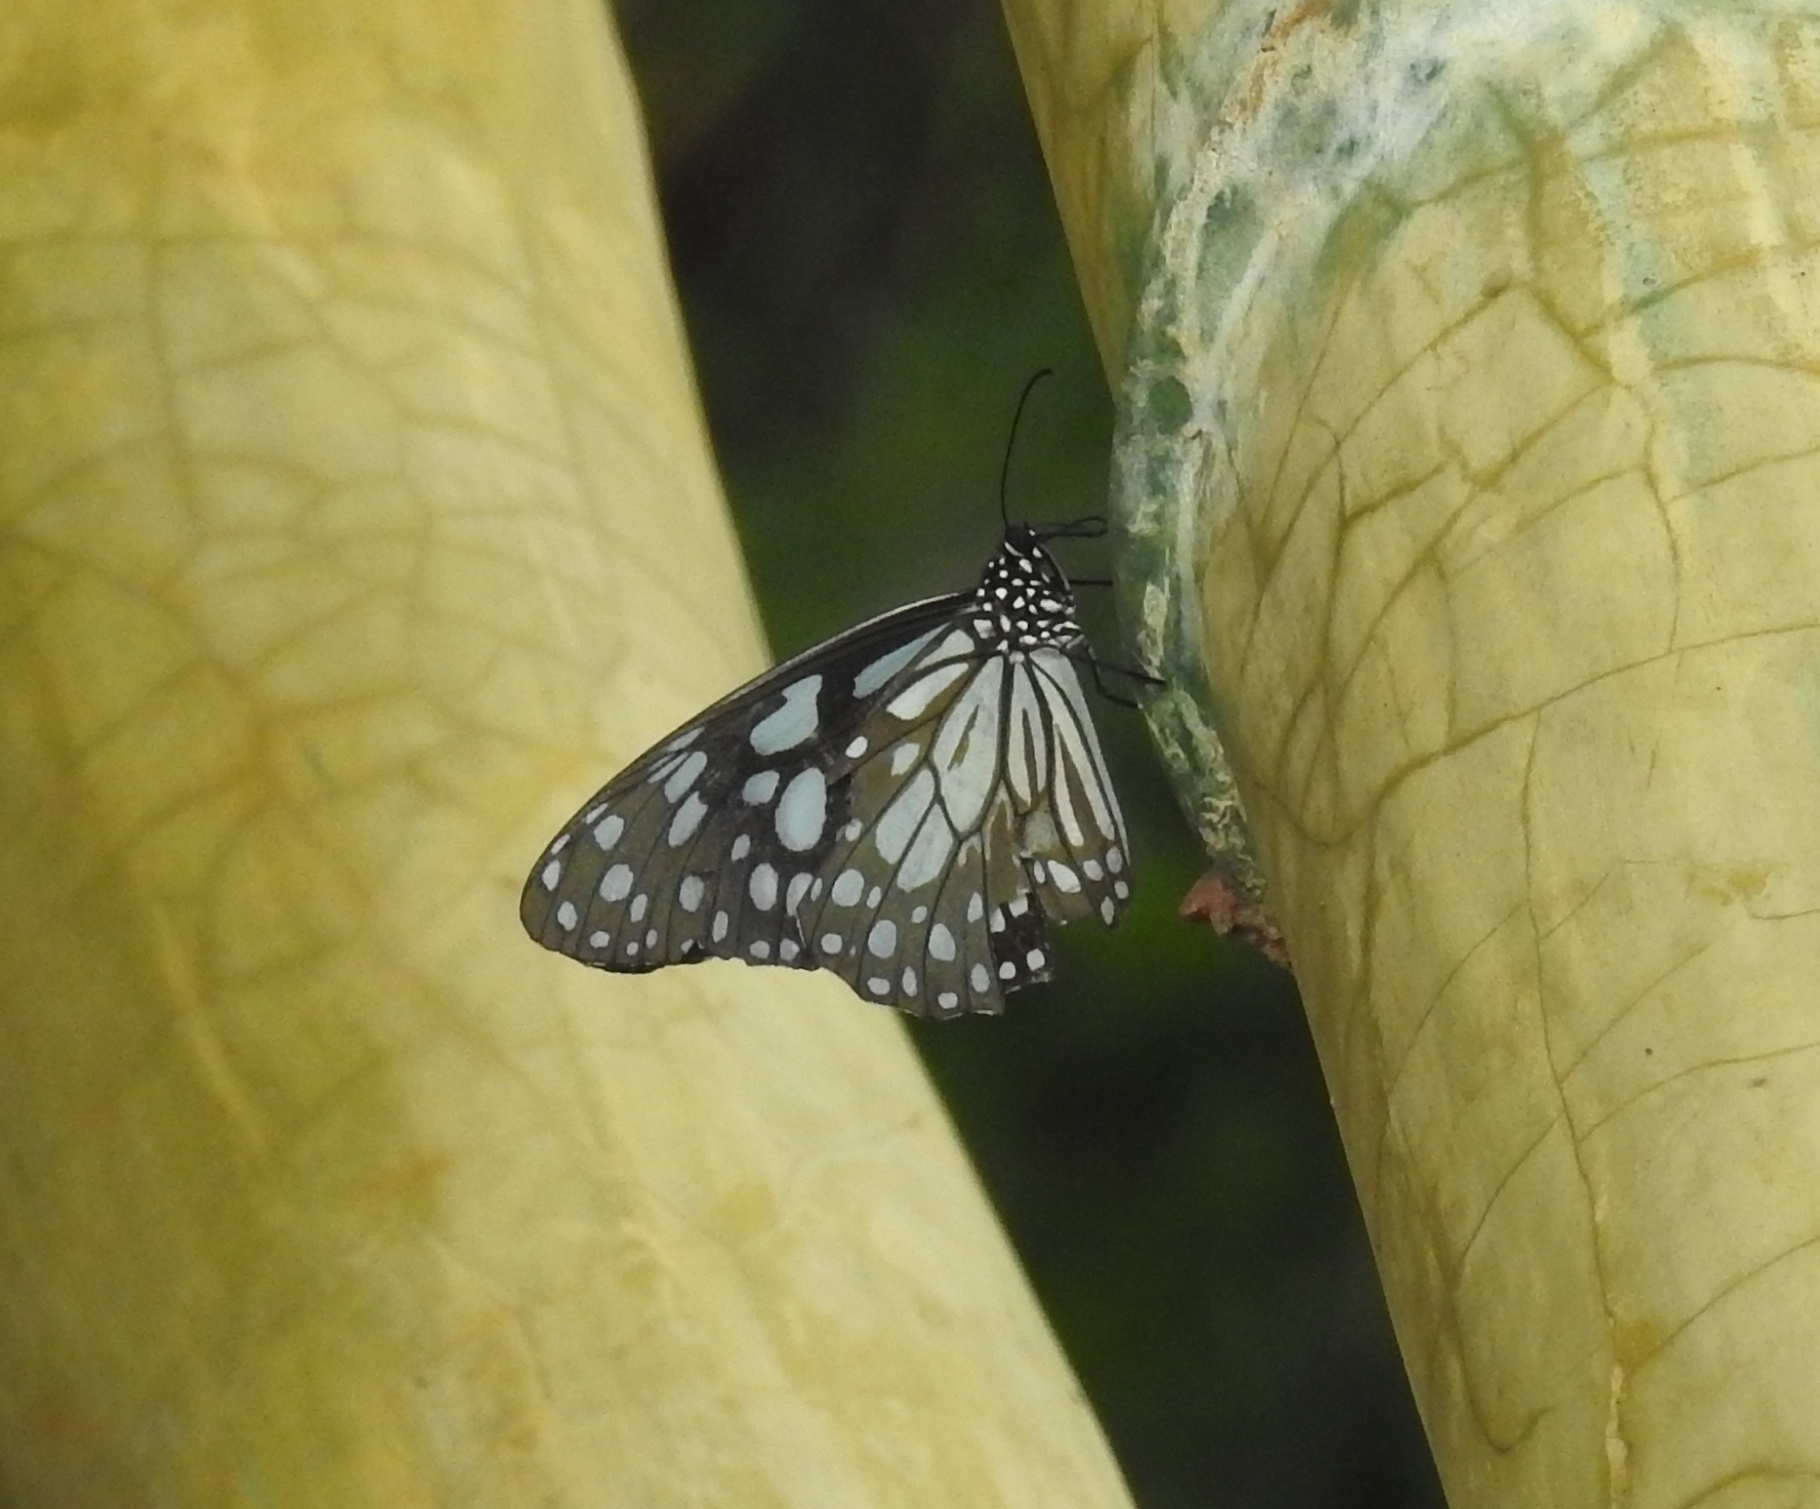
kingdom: Animalia
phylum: Arthropoda
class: Insecta
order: Lepidoptera
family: Nymphalidae
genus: Tirumala
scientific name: Tirumala limniace
